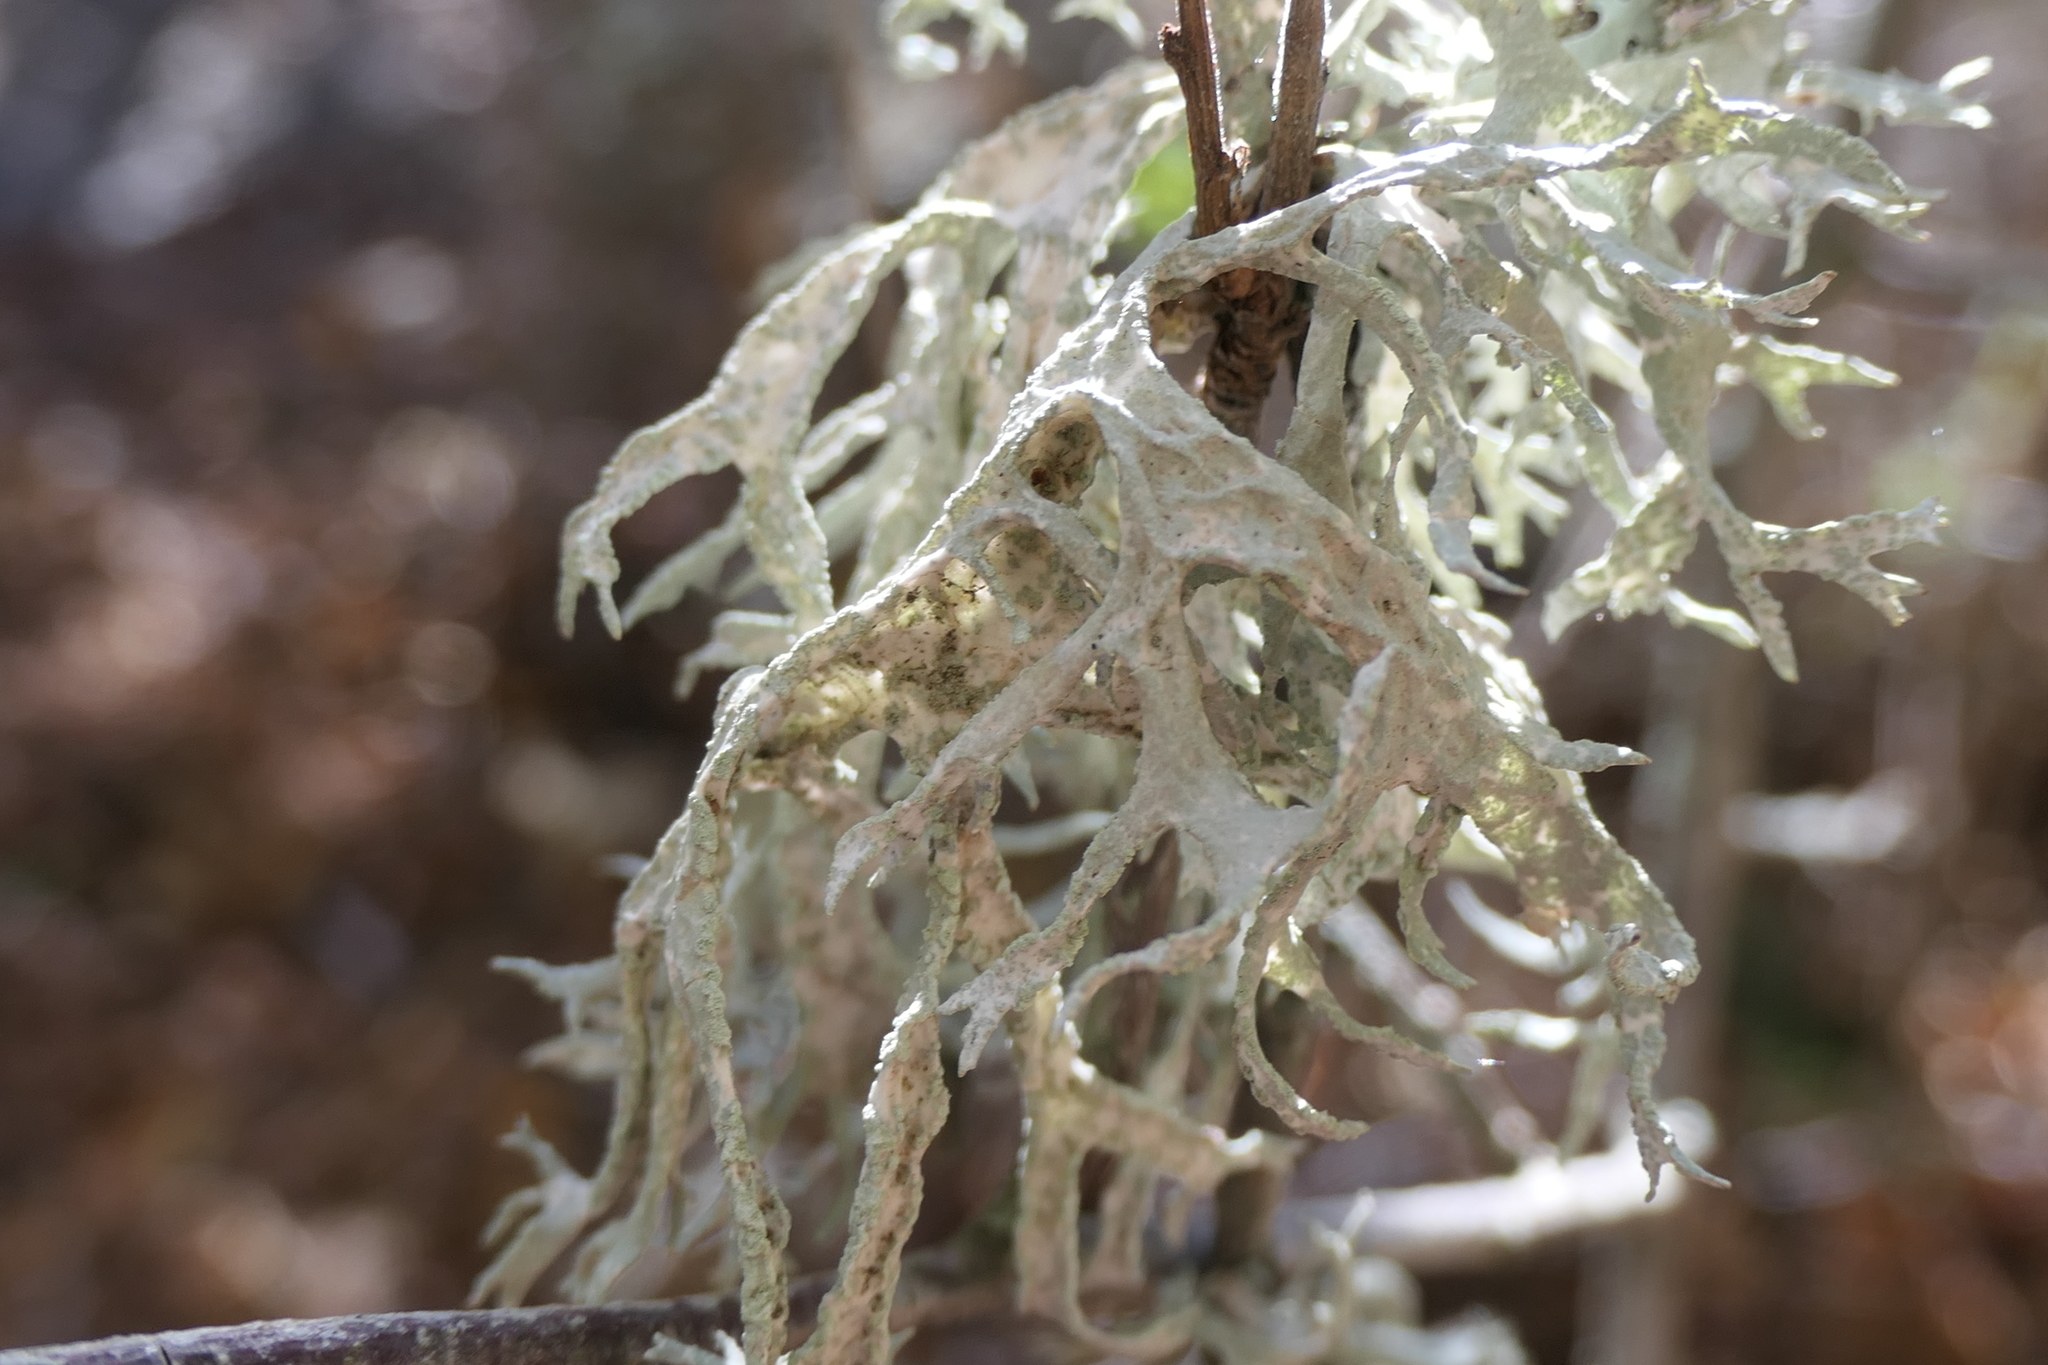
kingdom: Fungi
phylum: Ascomycota
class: Lecanoromycetes
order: Lecanorales
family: Parmeliaceae
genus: Evernia
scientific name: Evernia prunastri
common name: Oak moss
